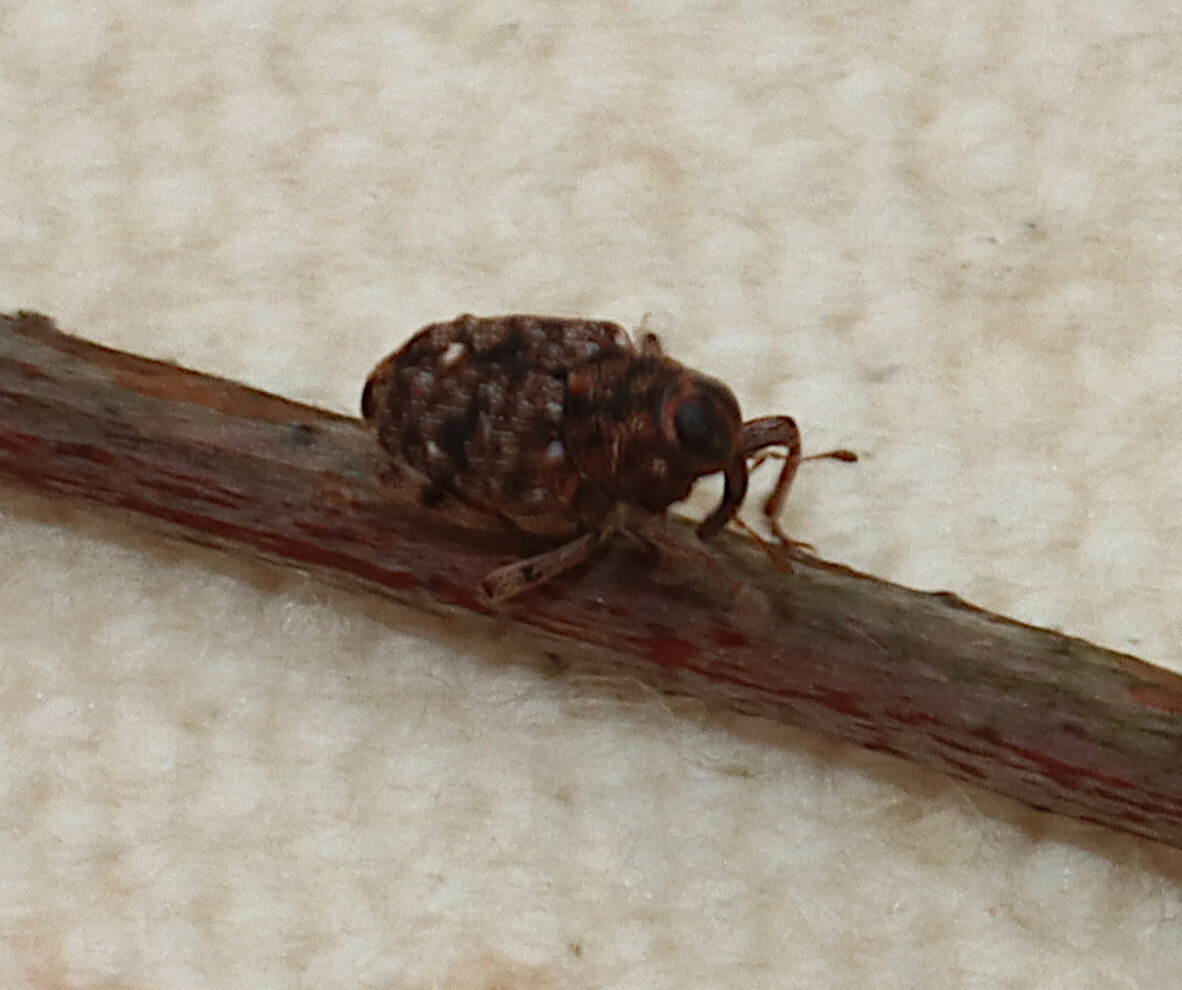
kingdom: Animalia
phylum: Arthropoda
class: Insecta
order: Coleoptera
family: Curculionidae
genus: Lechriops
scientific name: Lechriops oculatus
